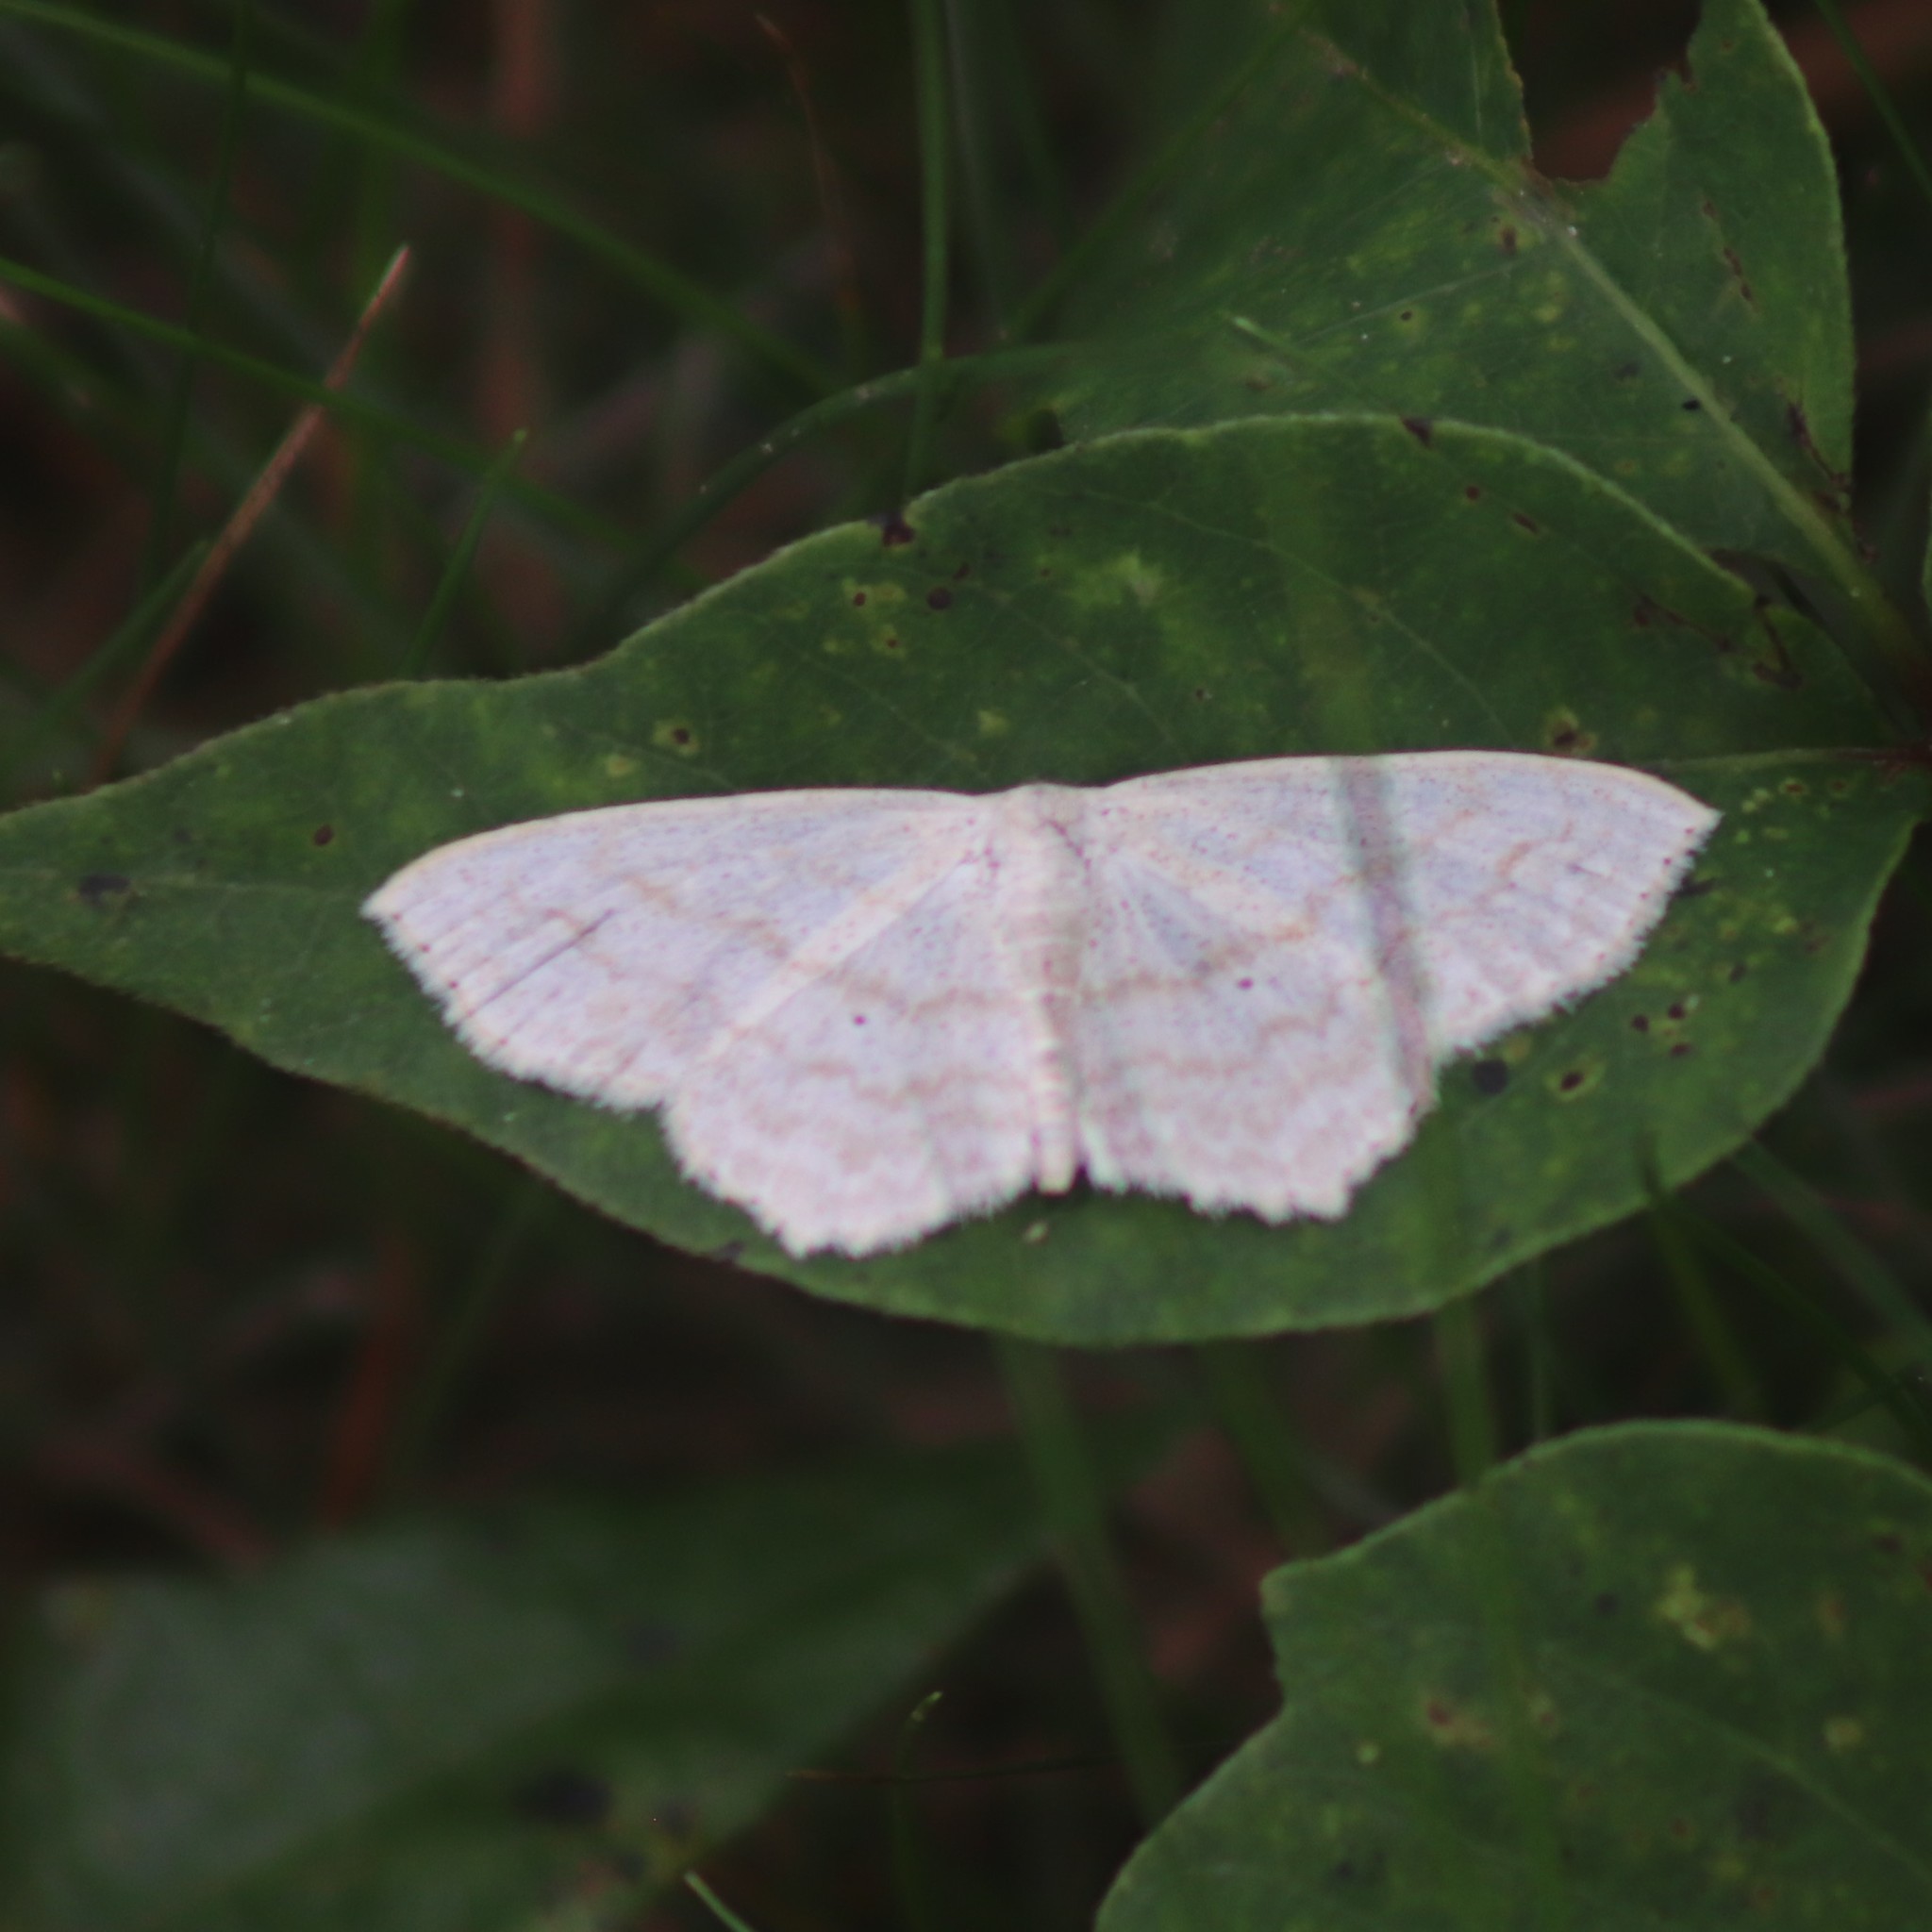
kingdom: Animalia
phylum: Arthropoda
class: Insecta
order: Lepidoptera
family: Geometridae
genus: Scopula
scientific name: Scopula limboundata
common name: Large lace border
